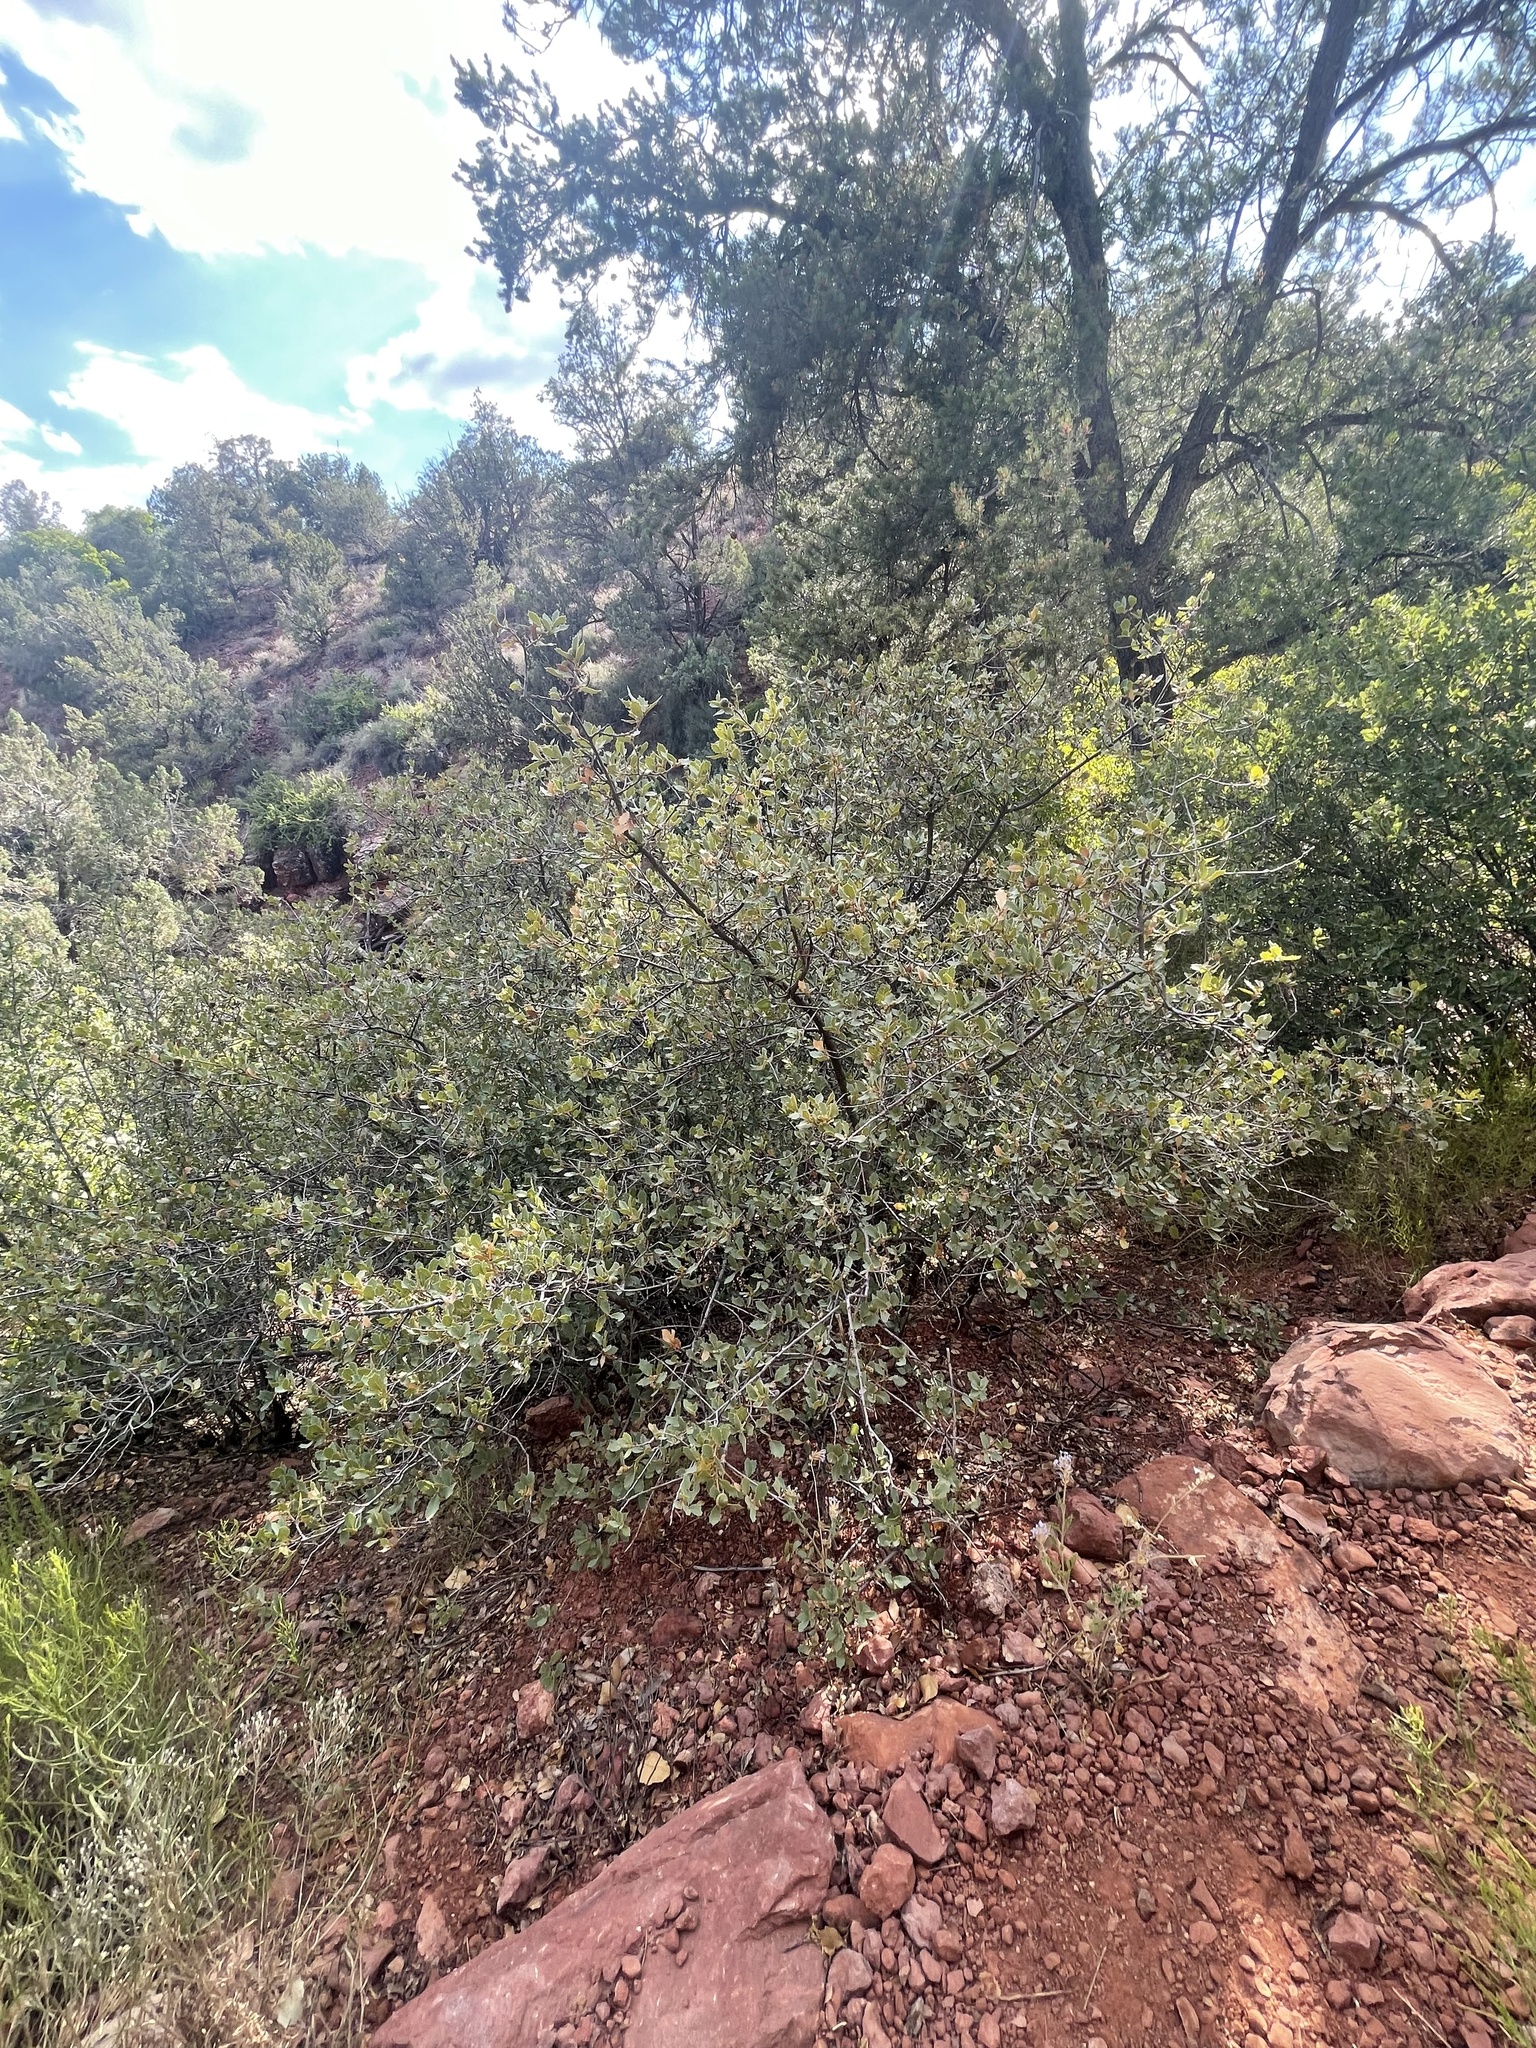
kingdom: Plantae
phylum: Tracheophyta
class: Magnoliopsida
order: Fagales
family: Fagaceae
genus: Quercus
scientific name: Quercus turbinella
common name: Sonoran scrub oak
